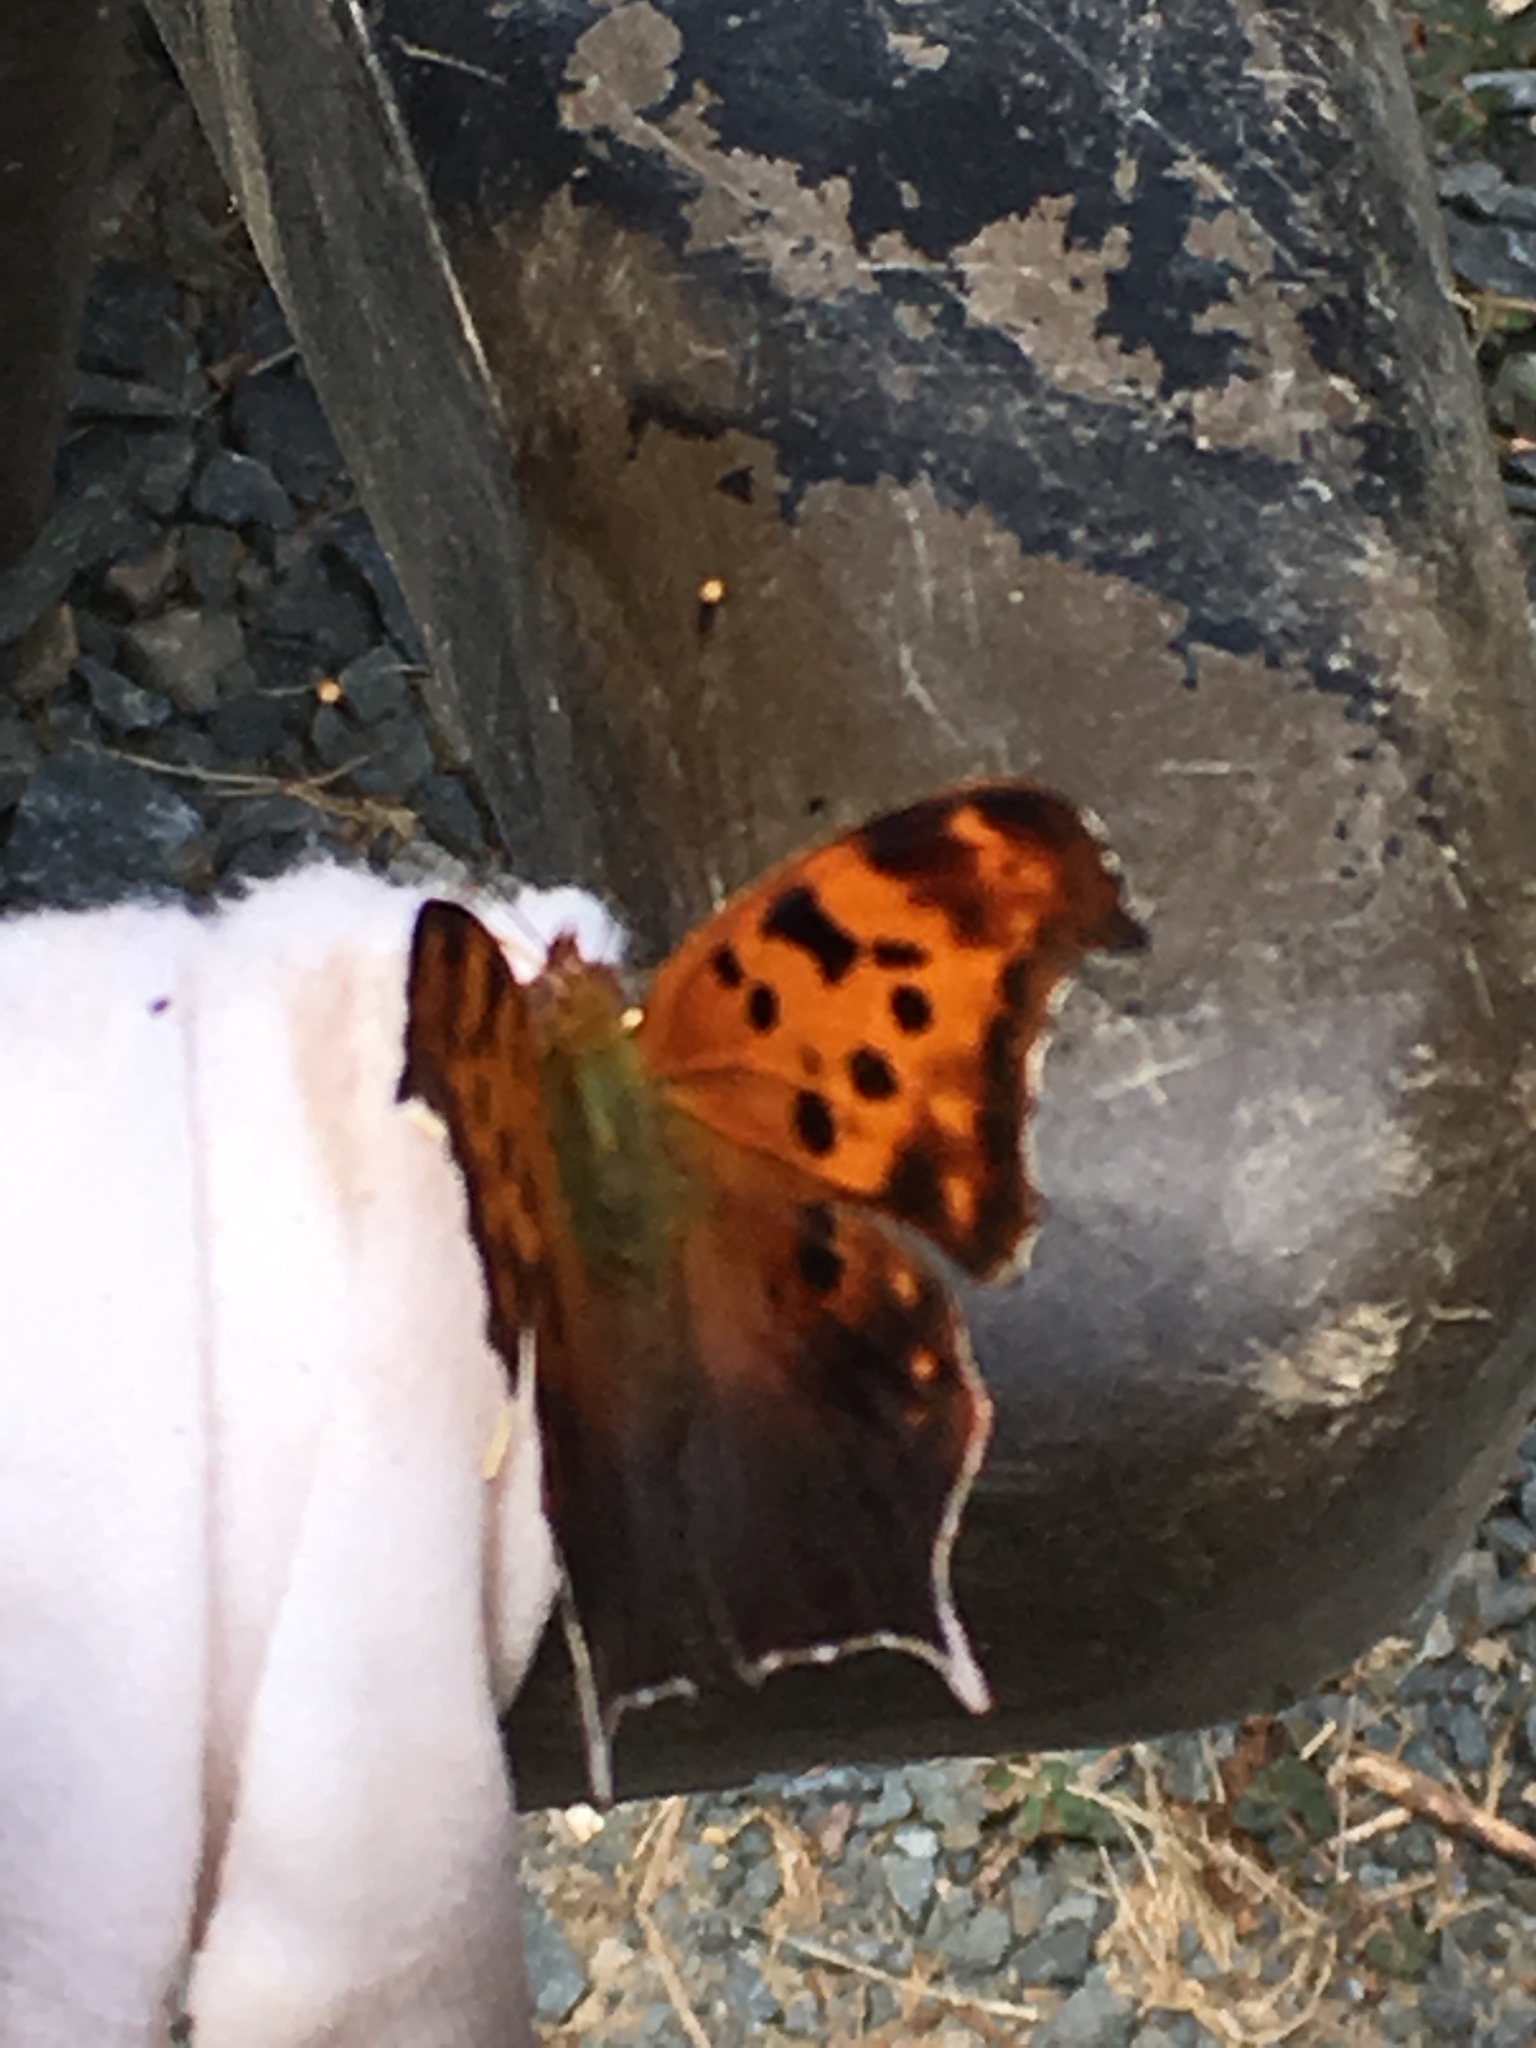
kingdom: Animalia
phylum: Arthropoda
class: Insecta
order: Lepidoptera
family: Nymphalidae
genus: Polygonia
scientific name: Polygonia interrogationis
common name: Question mark
